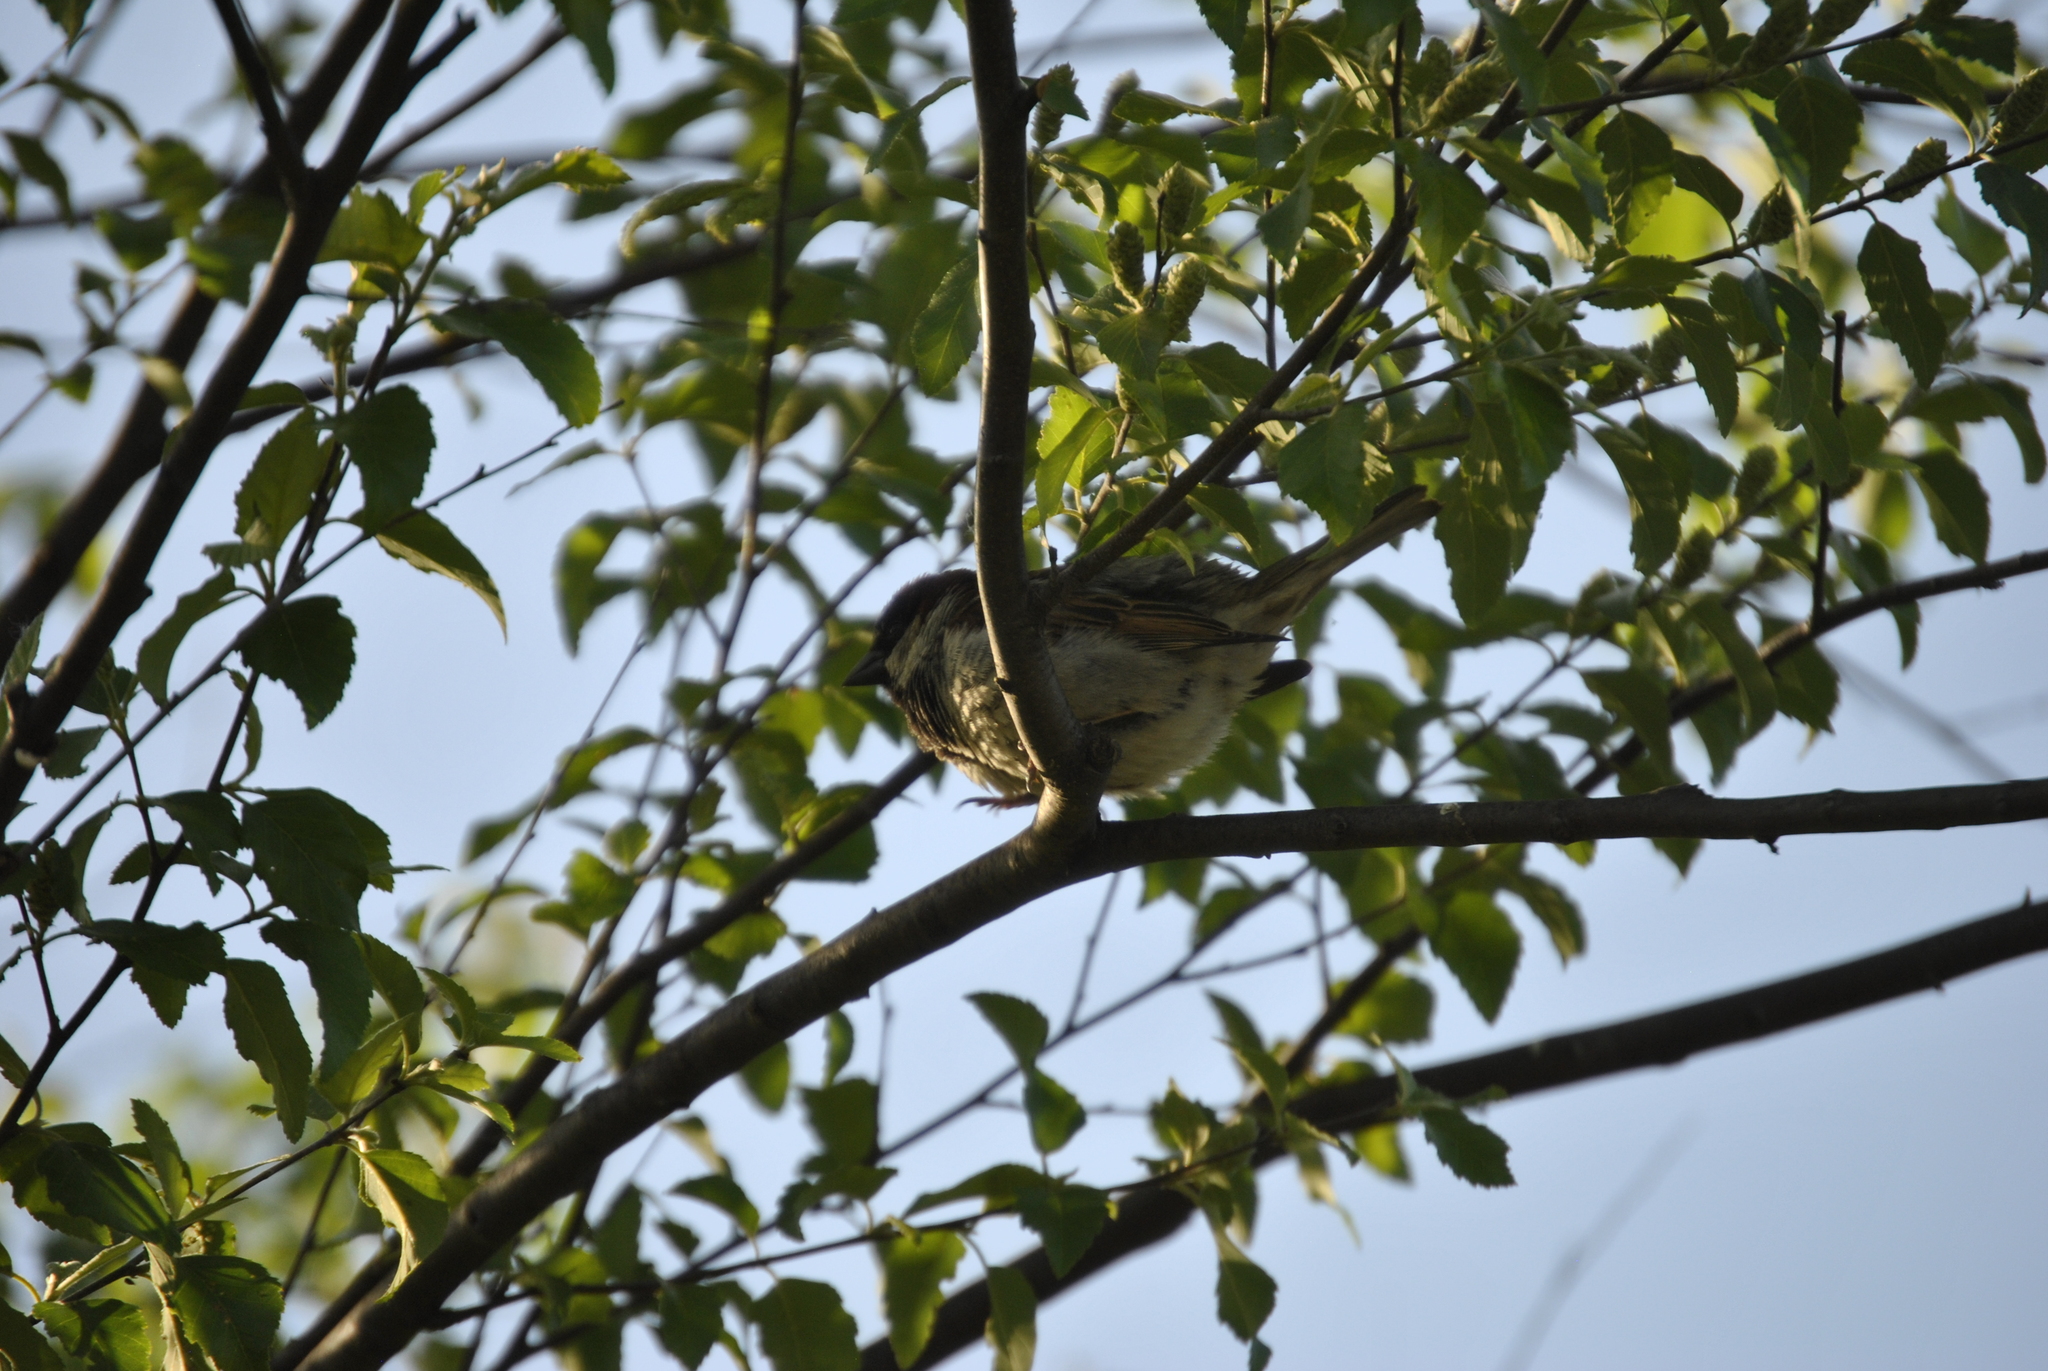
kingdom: Animalia
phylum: Chordata
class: Aves
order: Passeriformes
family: Passeridae
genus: Passer
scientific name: Passer domesticus
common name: House sparrow
